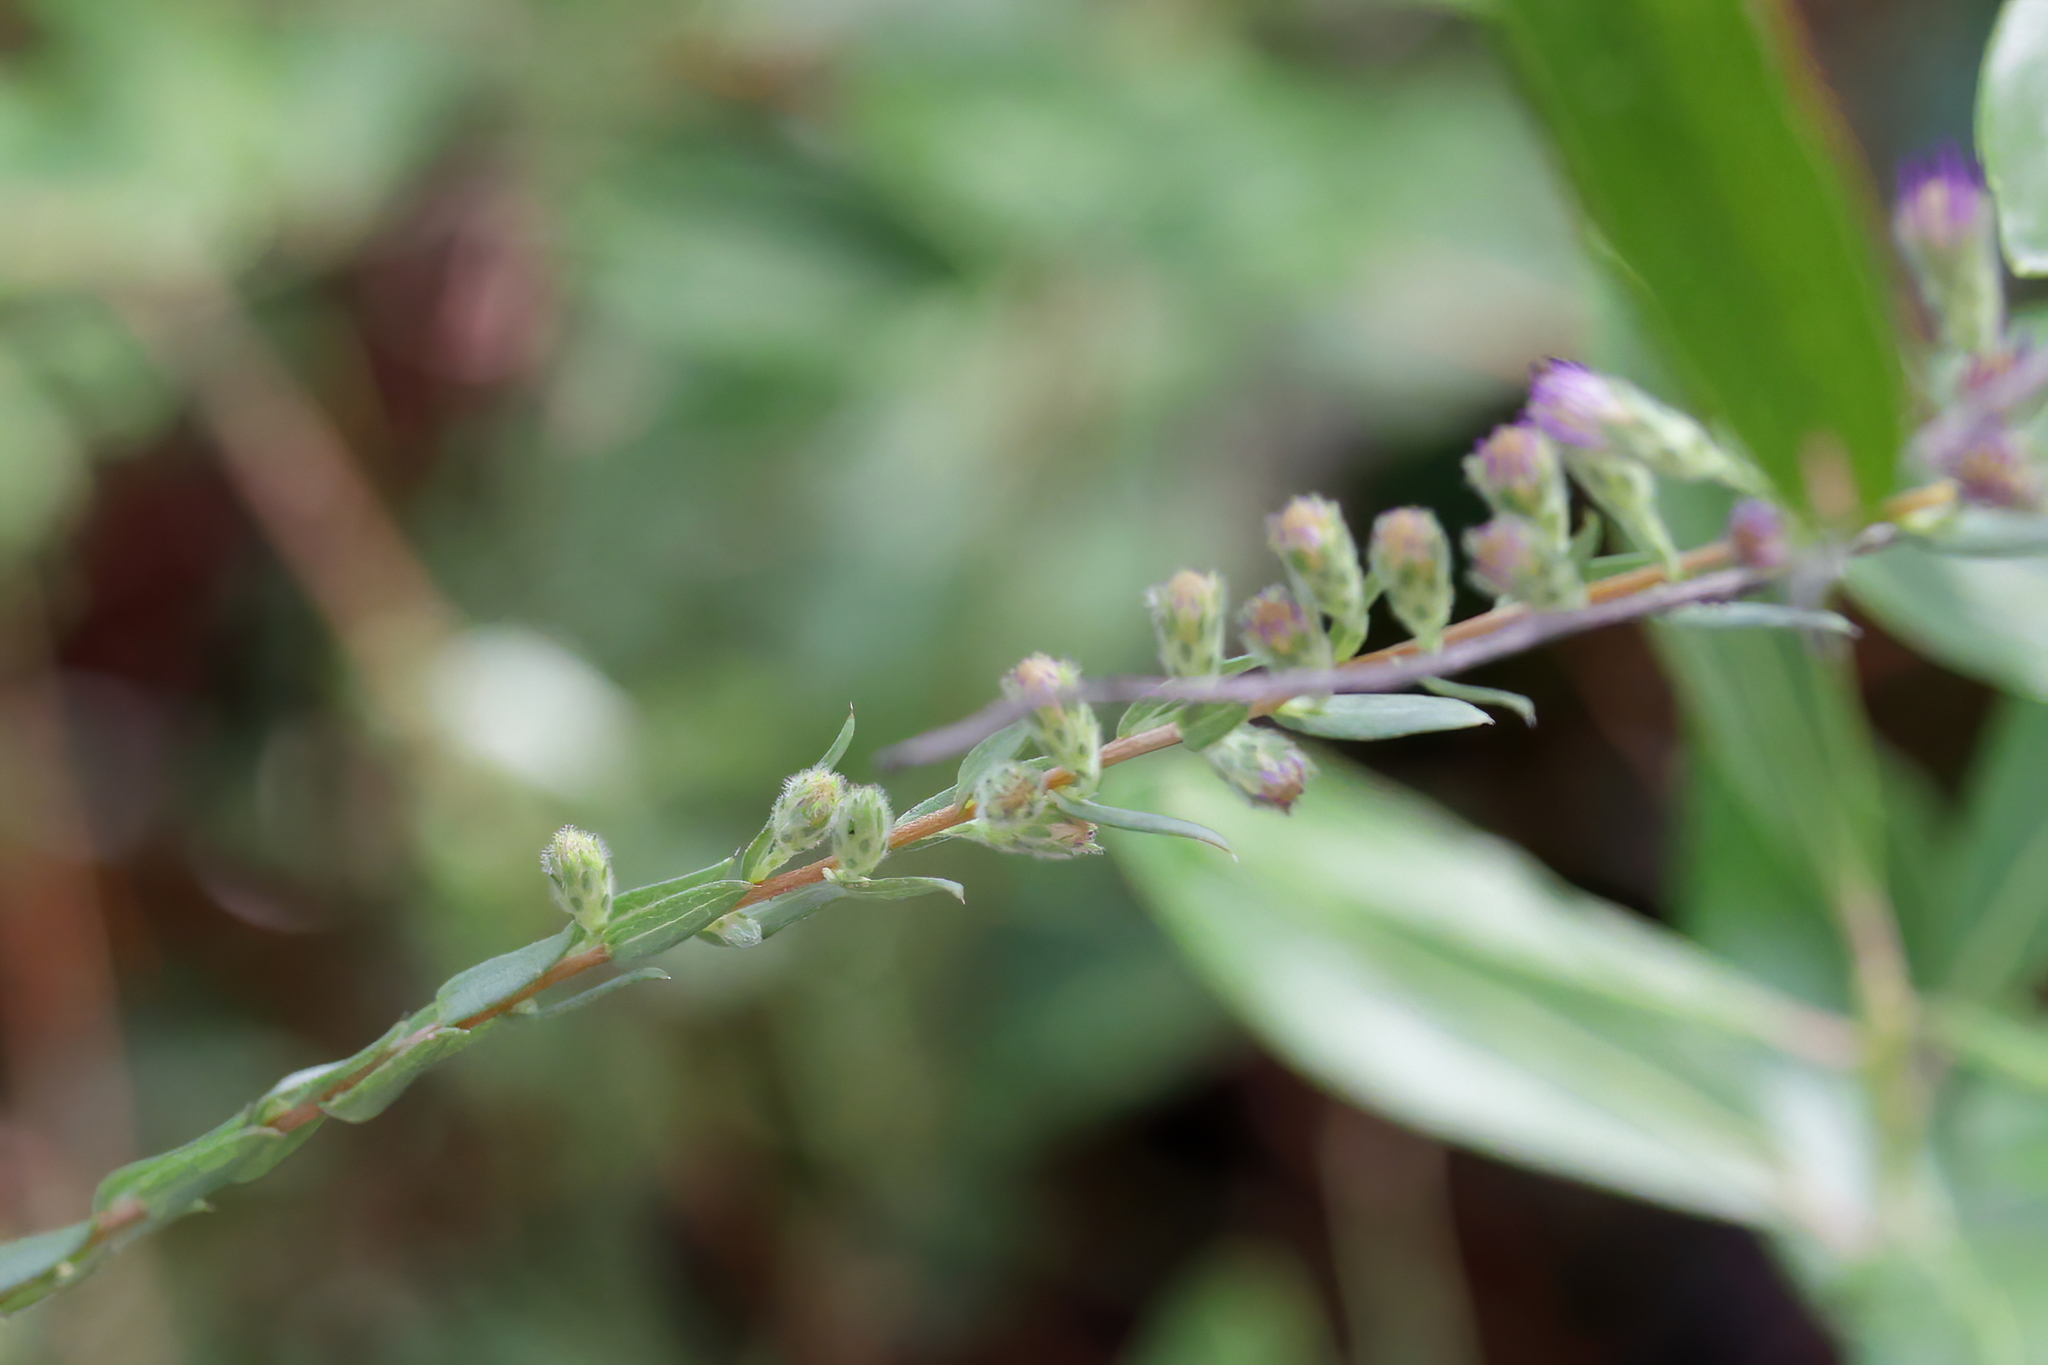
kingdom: Plantae
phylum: Tracheophyta
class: Magnoliopsida
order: Asterales
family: Asteraceae
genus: Symphyotrichum
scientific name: Symphyotrichum concolor
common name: Eastern silver aster
